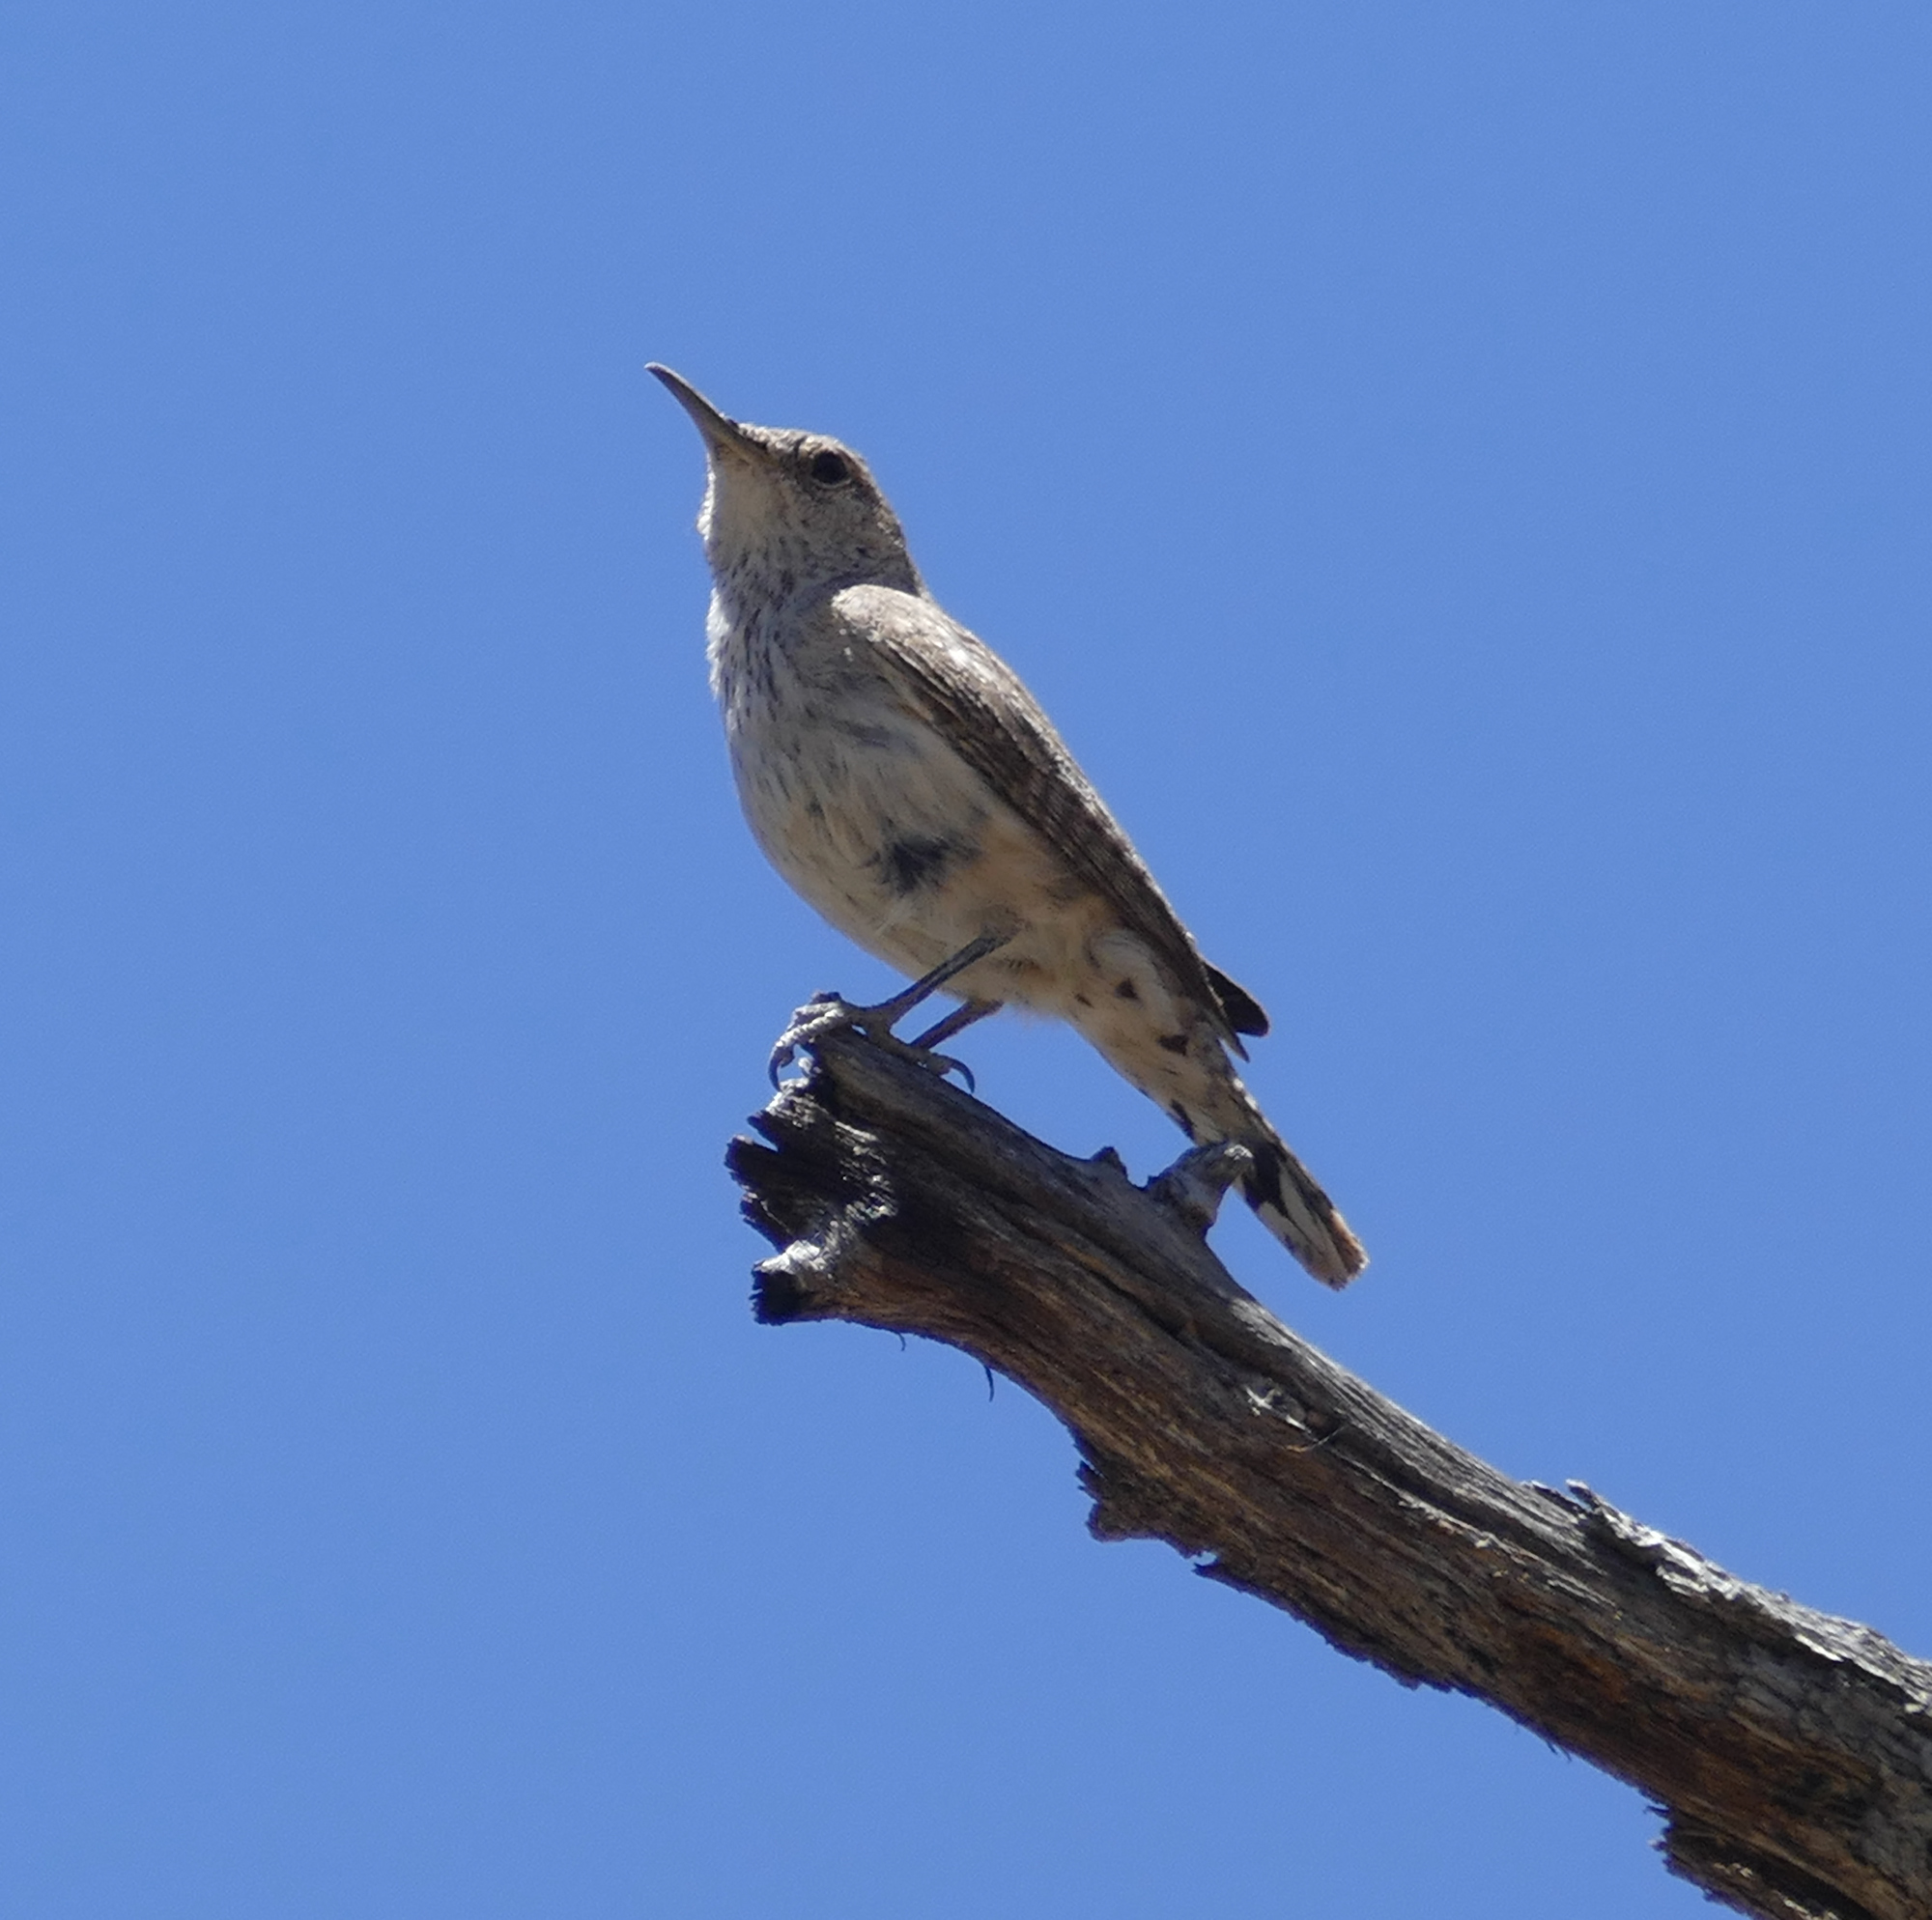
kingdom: Animalia
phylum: Chordata
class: Aves
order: Passeriformes
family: Troglodytidae
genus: Salpinctes
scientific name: Salpinctes obsoletus
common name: Rock wren
